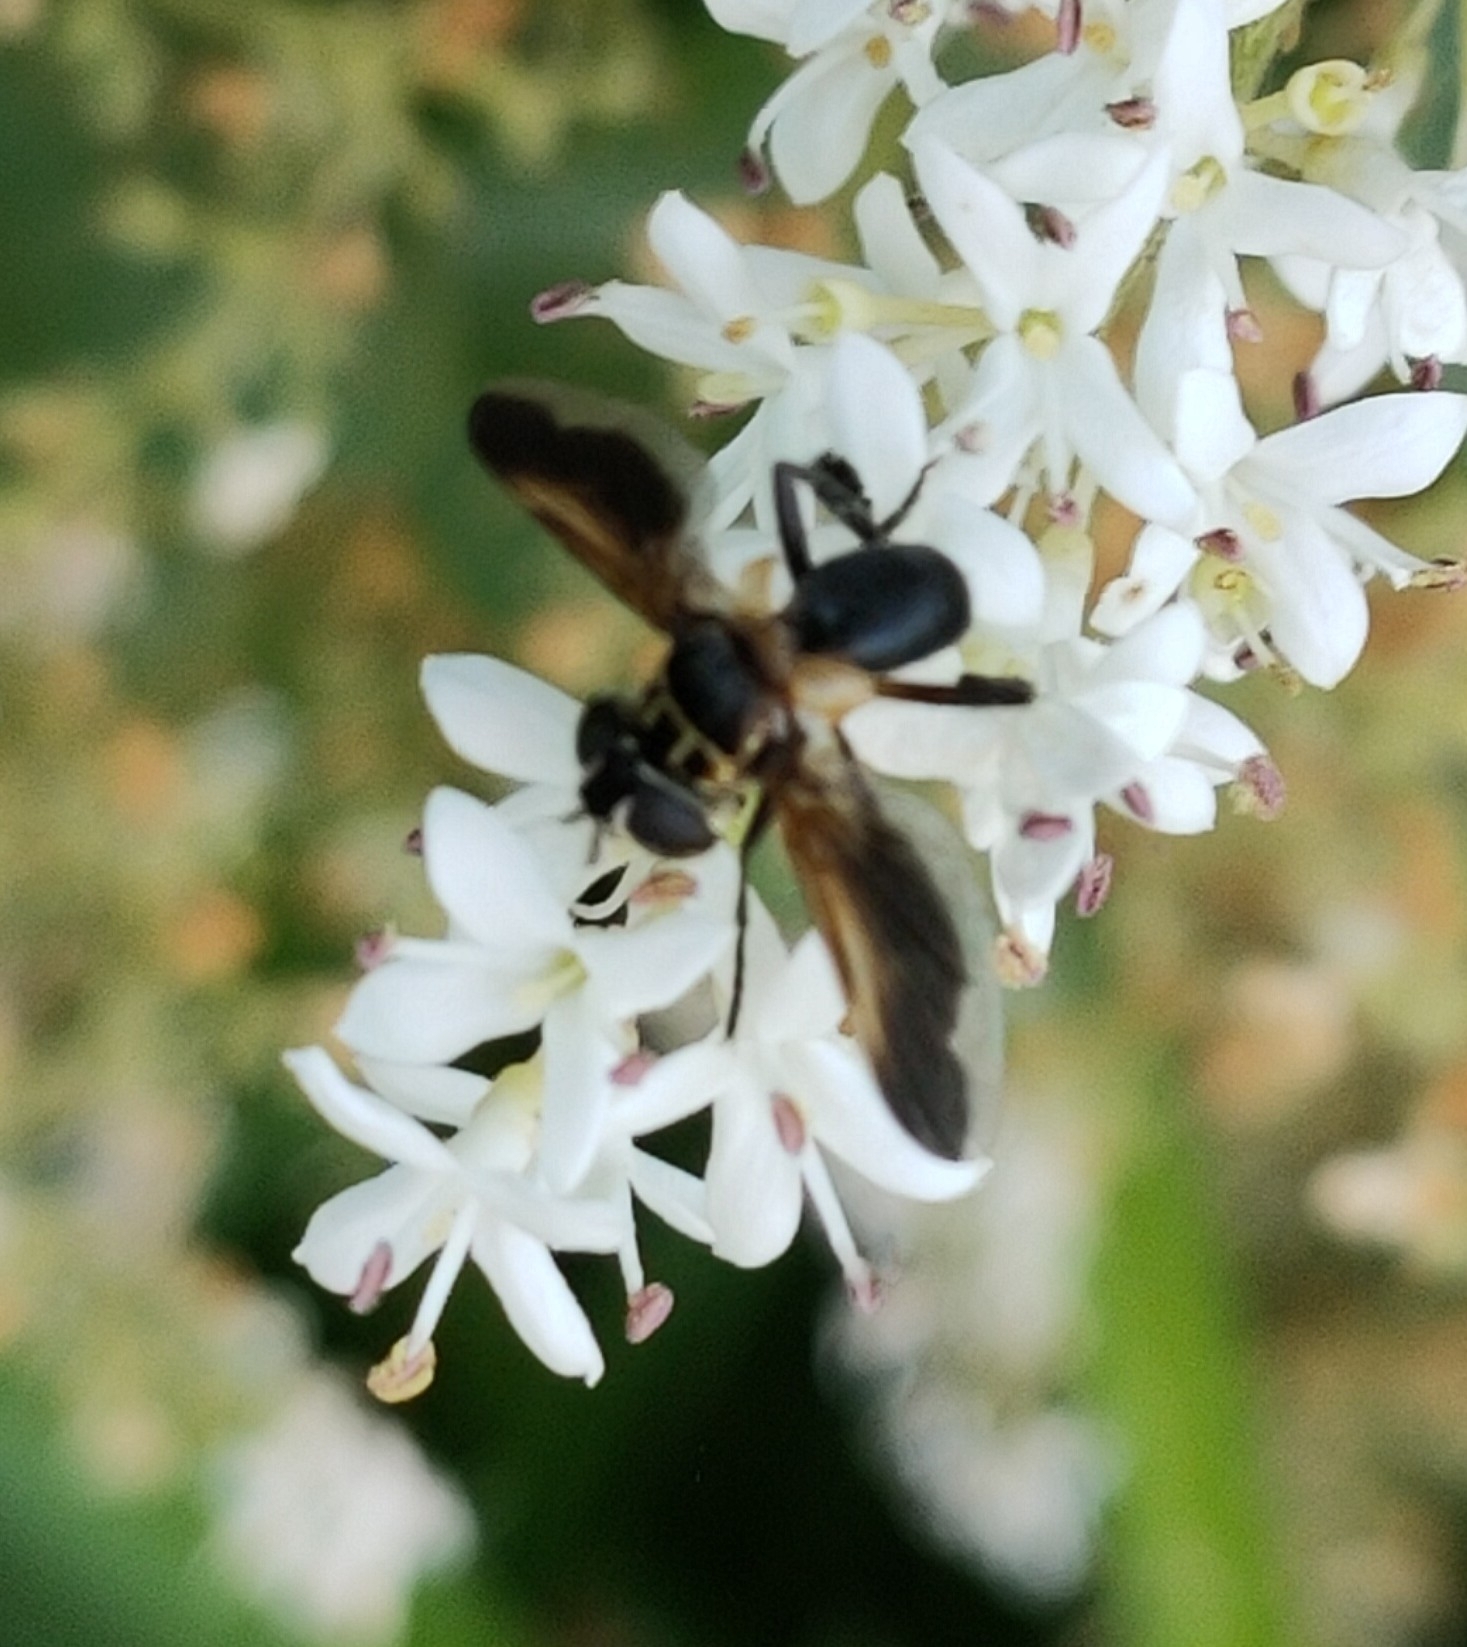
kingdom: Animalia
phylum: Arthropoda
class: Insecta
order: Diptera
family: Tachinidae
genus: Trichopoda
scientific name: Trichopoda pictipennis
